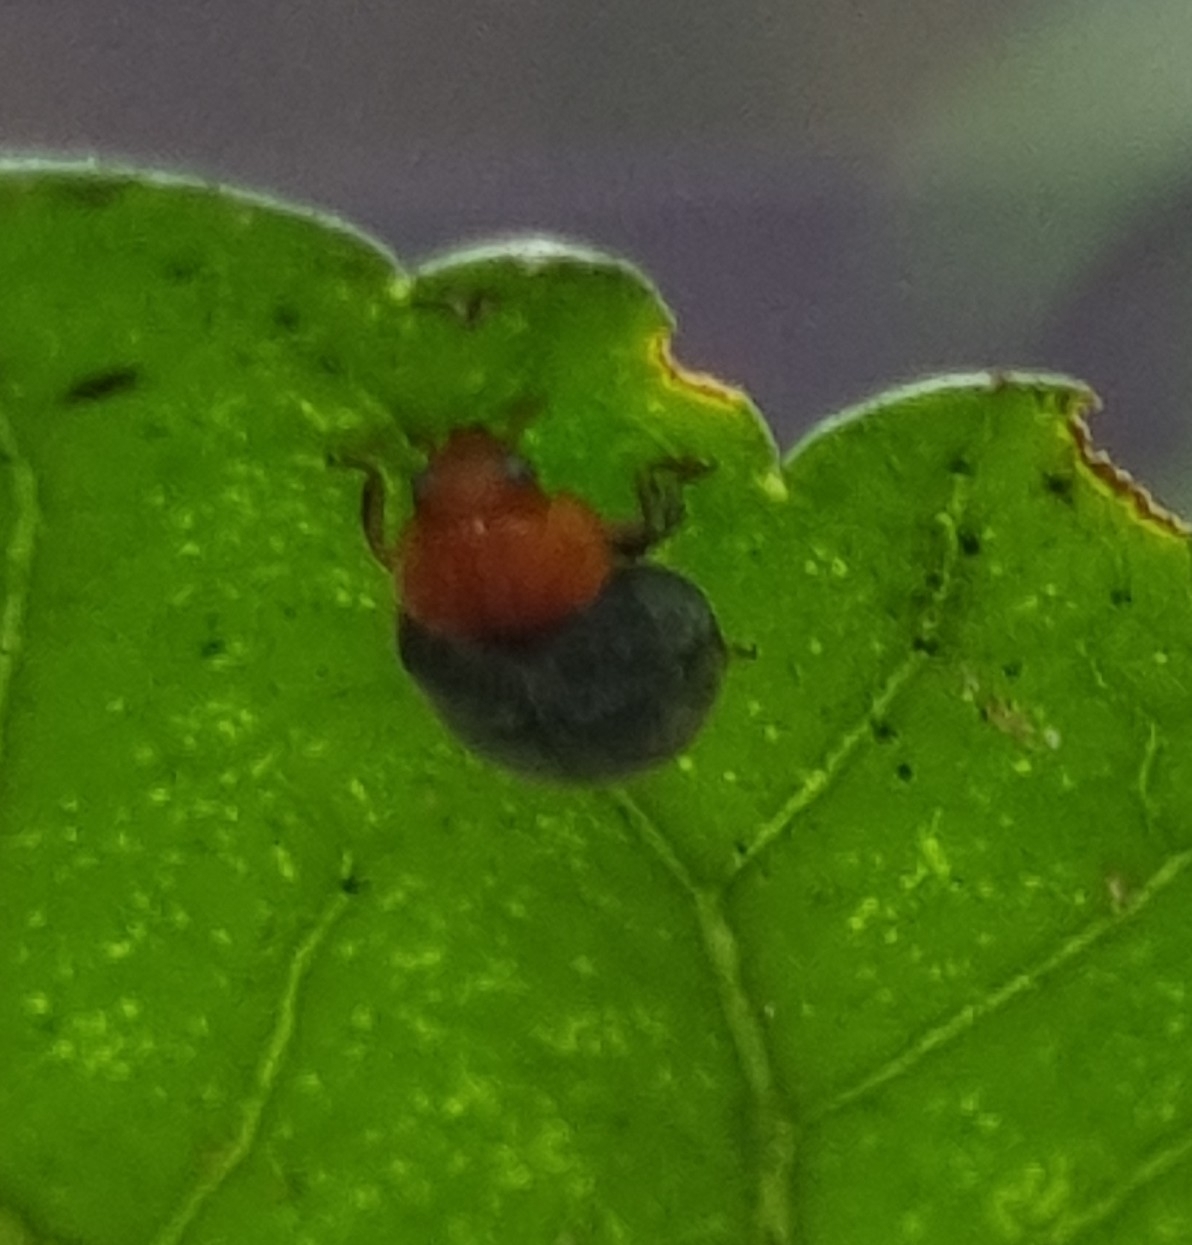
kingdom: Animalia
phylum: Arthropoda
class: Insecta
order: Coleoptera
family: Coccinellidae
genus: Cryptolaemus
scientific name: Cryptolaemus montrouzieri
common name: Mealybug destroyer
